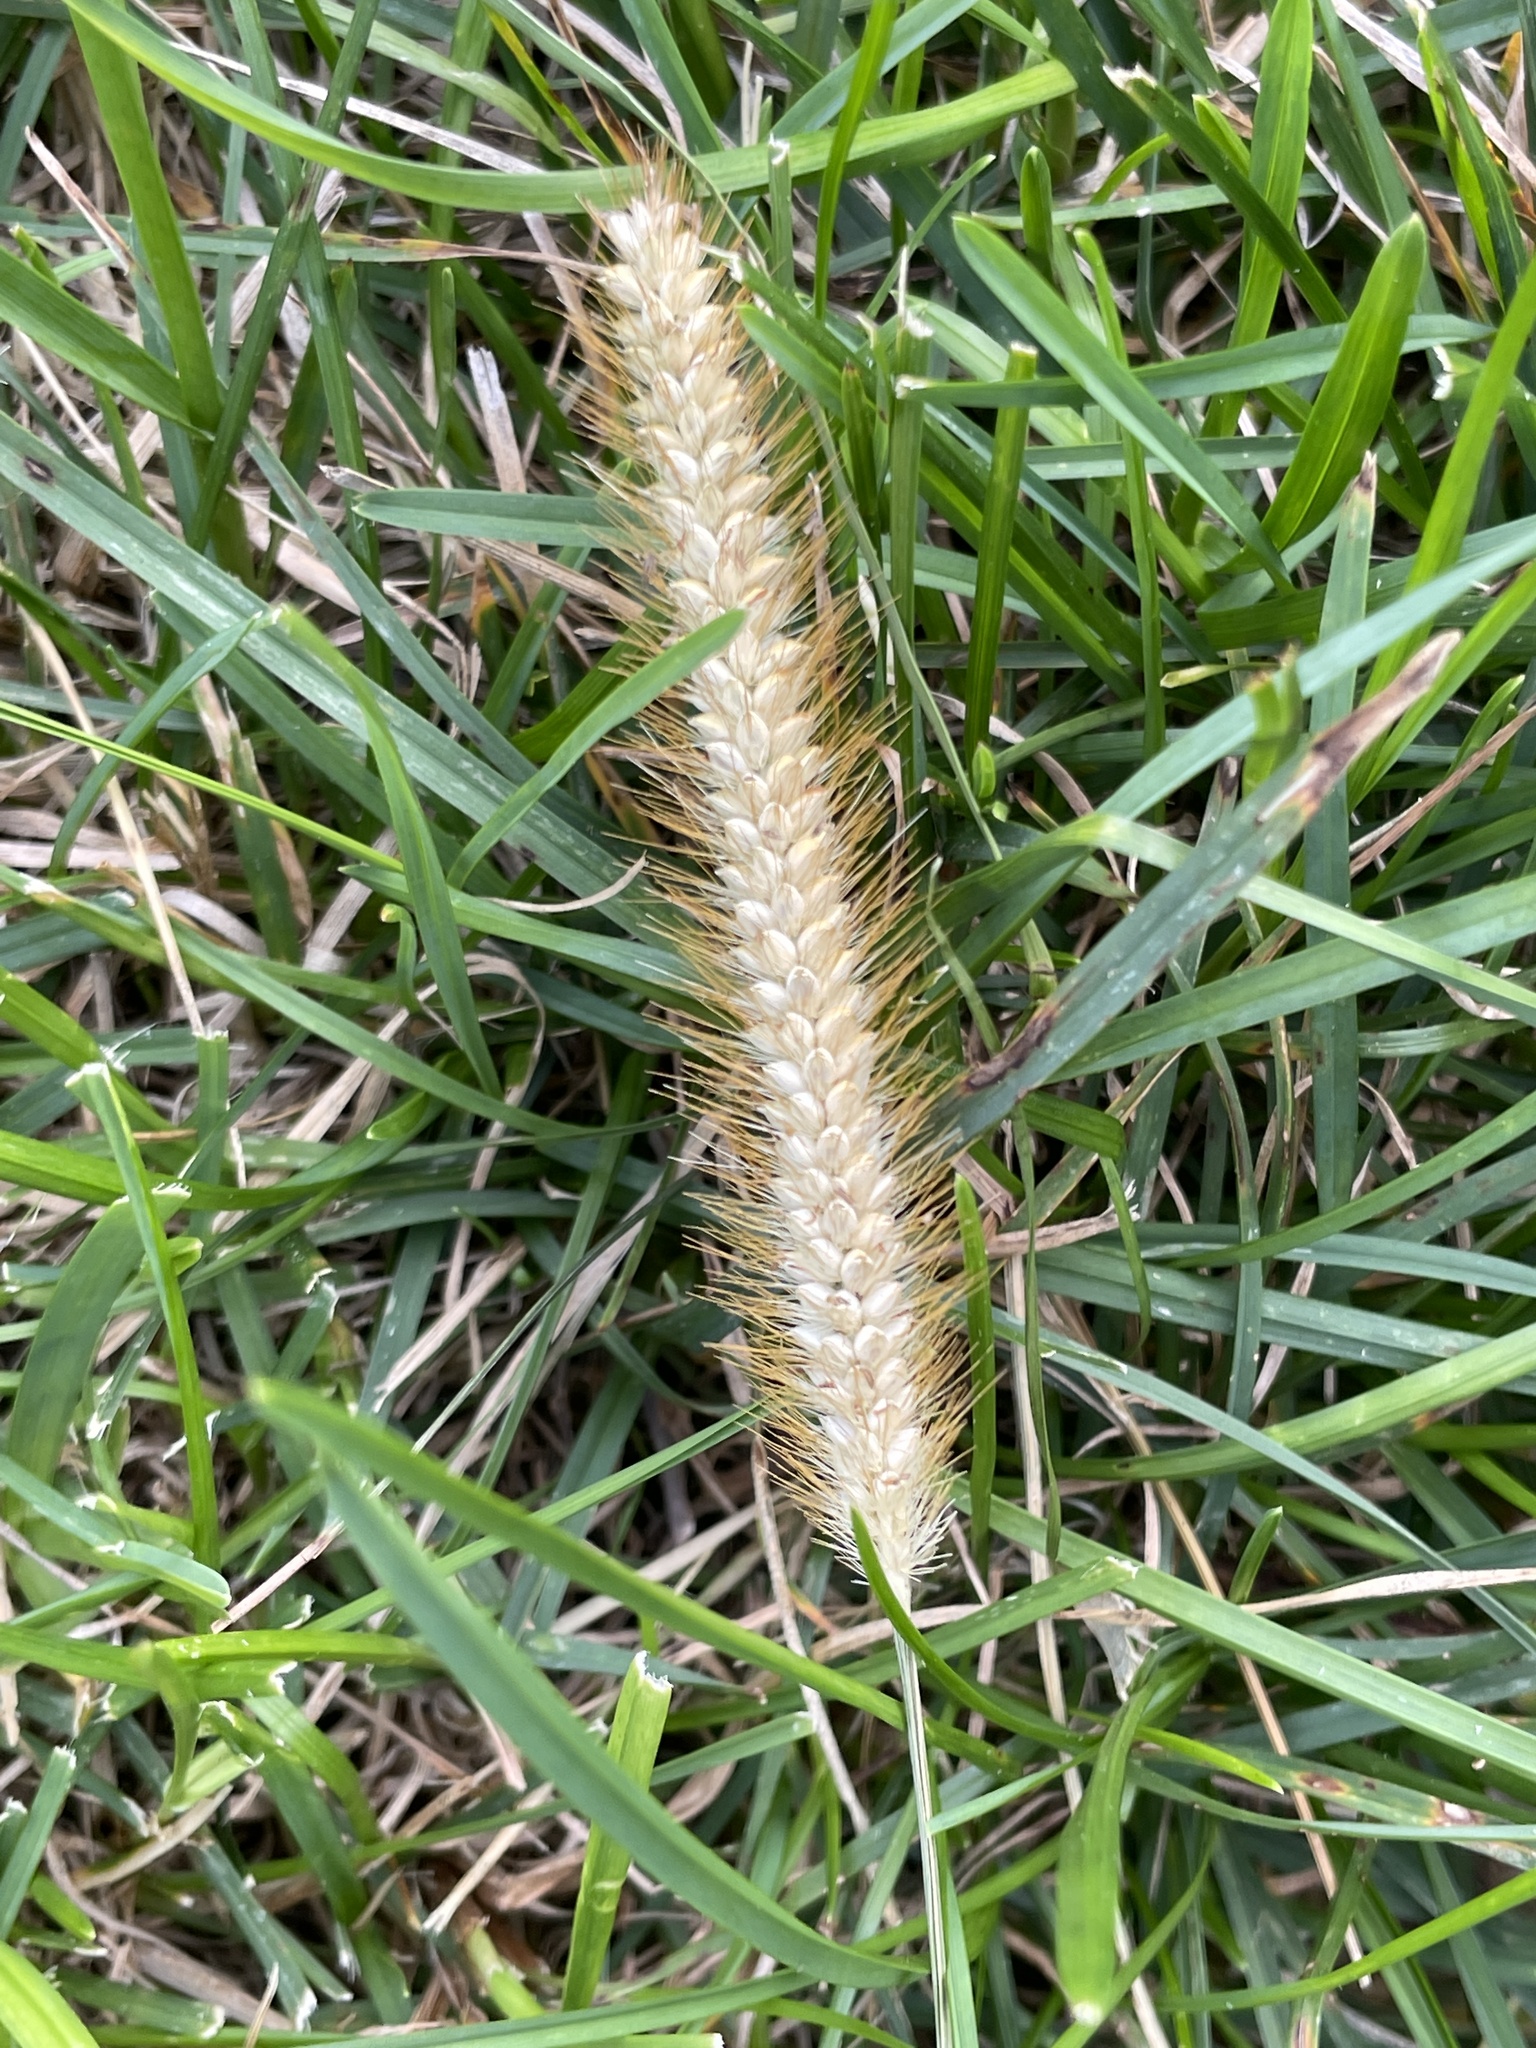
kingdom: Plantae
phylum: Tracheophyta
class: Liliopsida
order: Poales
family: Poaceae
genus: Setaria
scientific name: Setaria pumila
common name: Yellow bristle-grass
